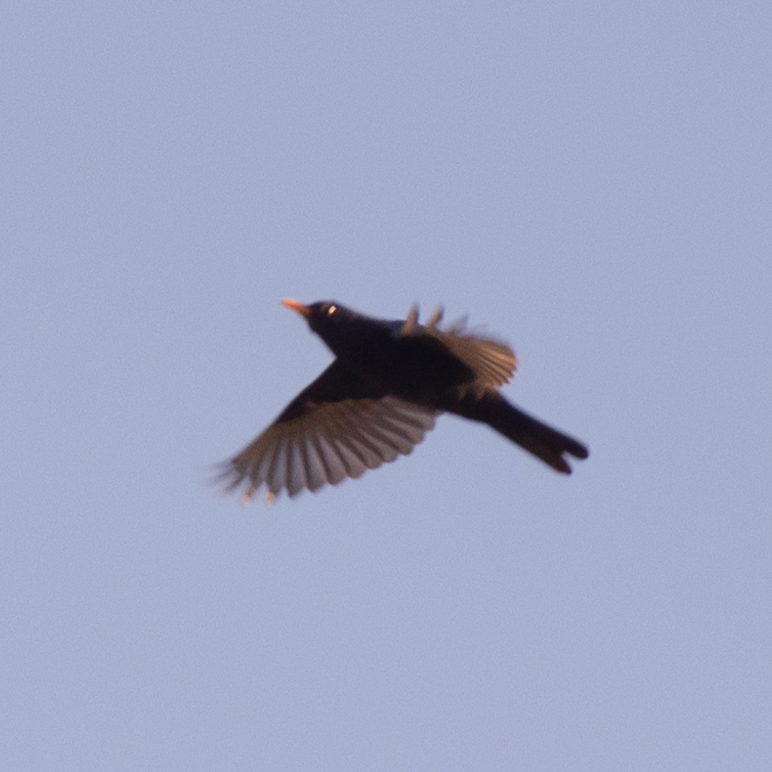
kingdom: Animalia
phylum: Chordata
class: Aves
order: Passeriformes
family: Turdidae
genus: Turdus
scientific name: Turdus merula
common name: Common blackbird
